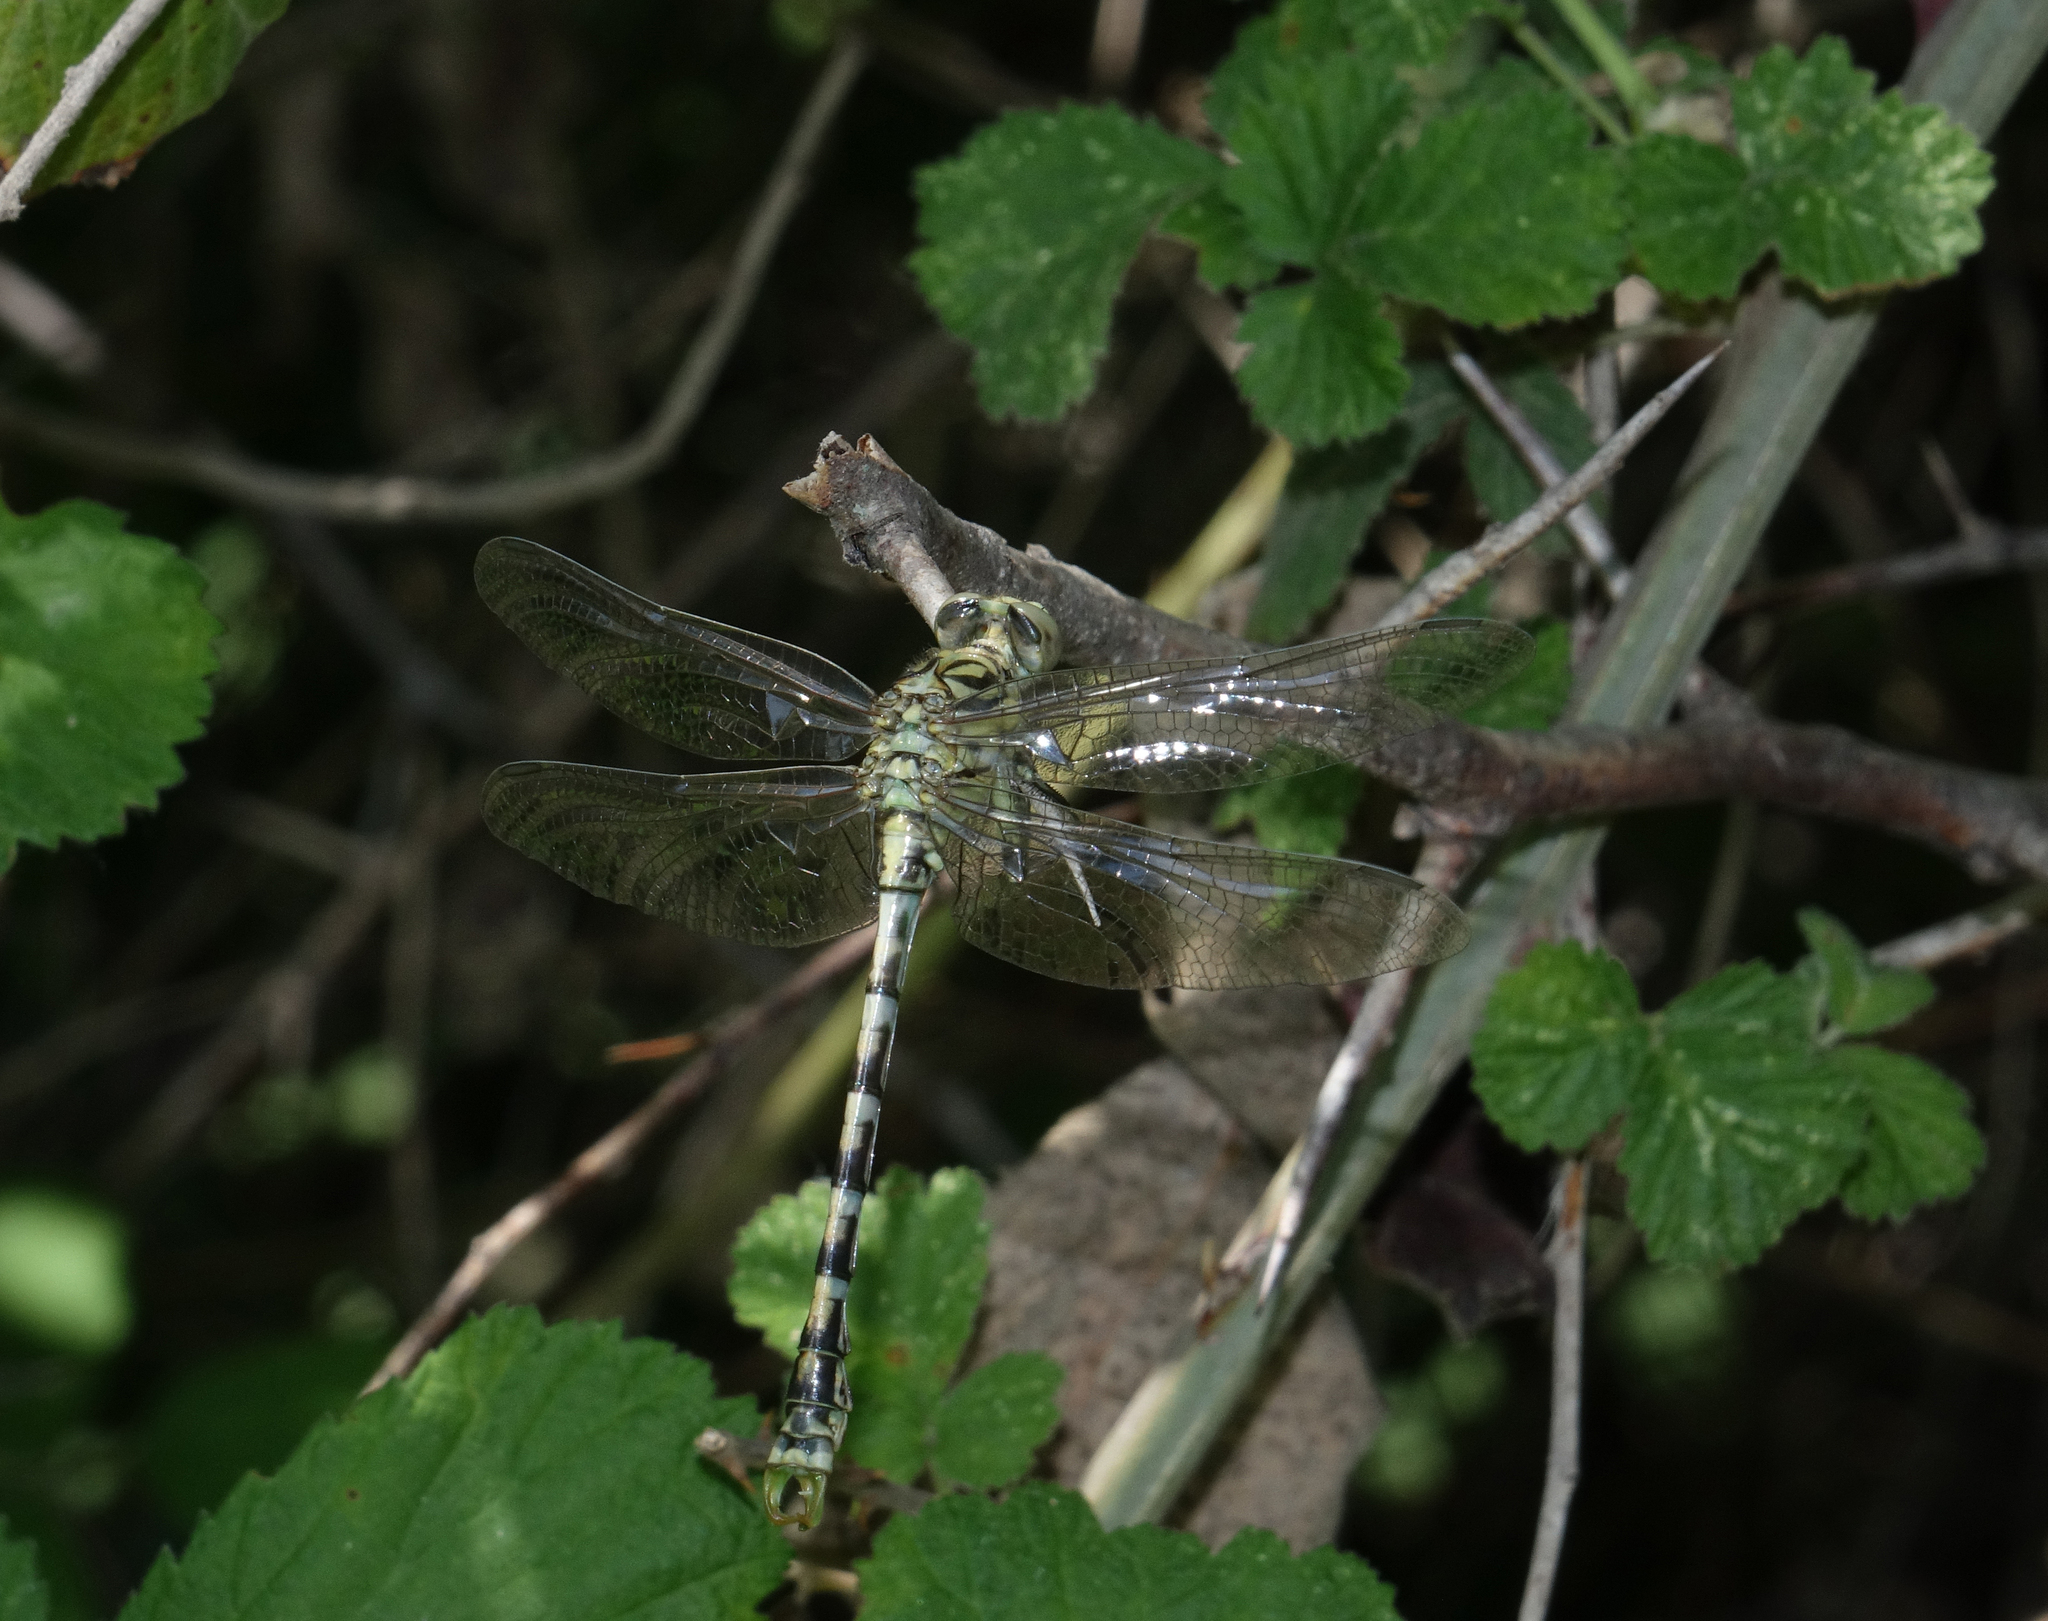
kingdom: Animalia
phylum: Arthropoda
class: Insecta
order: Odonata
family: Gomphidae
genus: Onychogomphus
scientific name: Onychogomphus forcipatus
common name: Small pincertail
